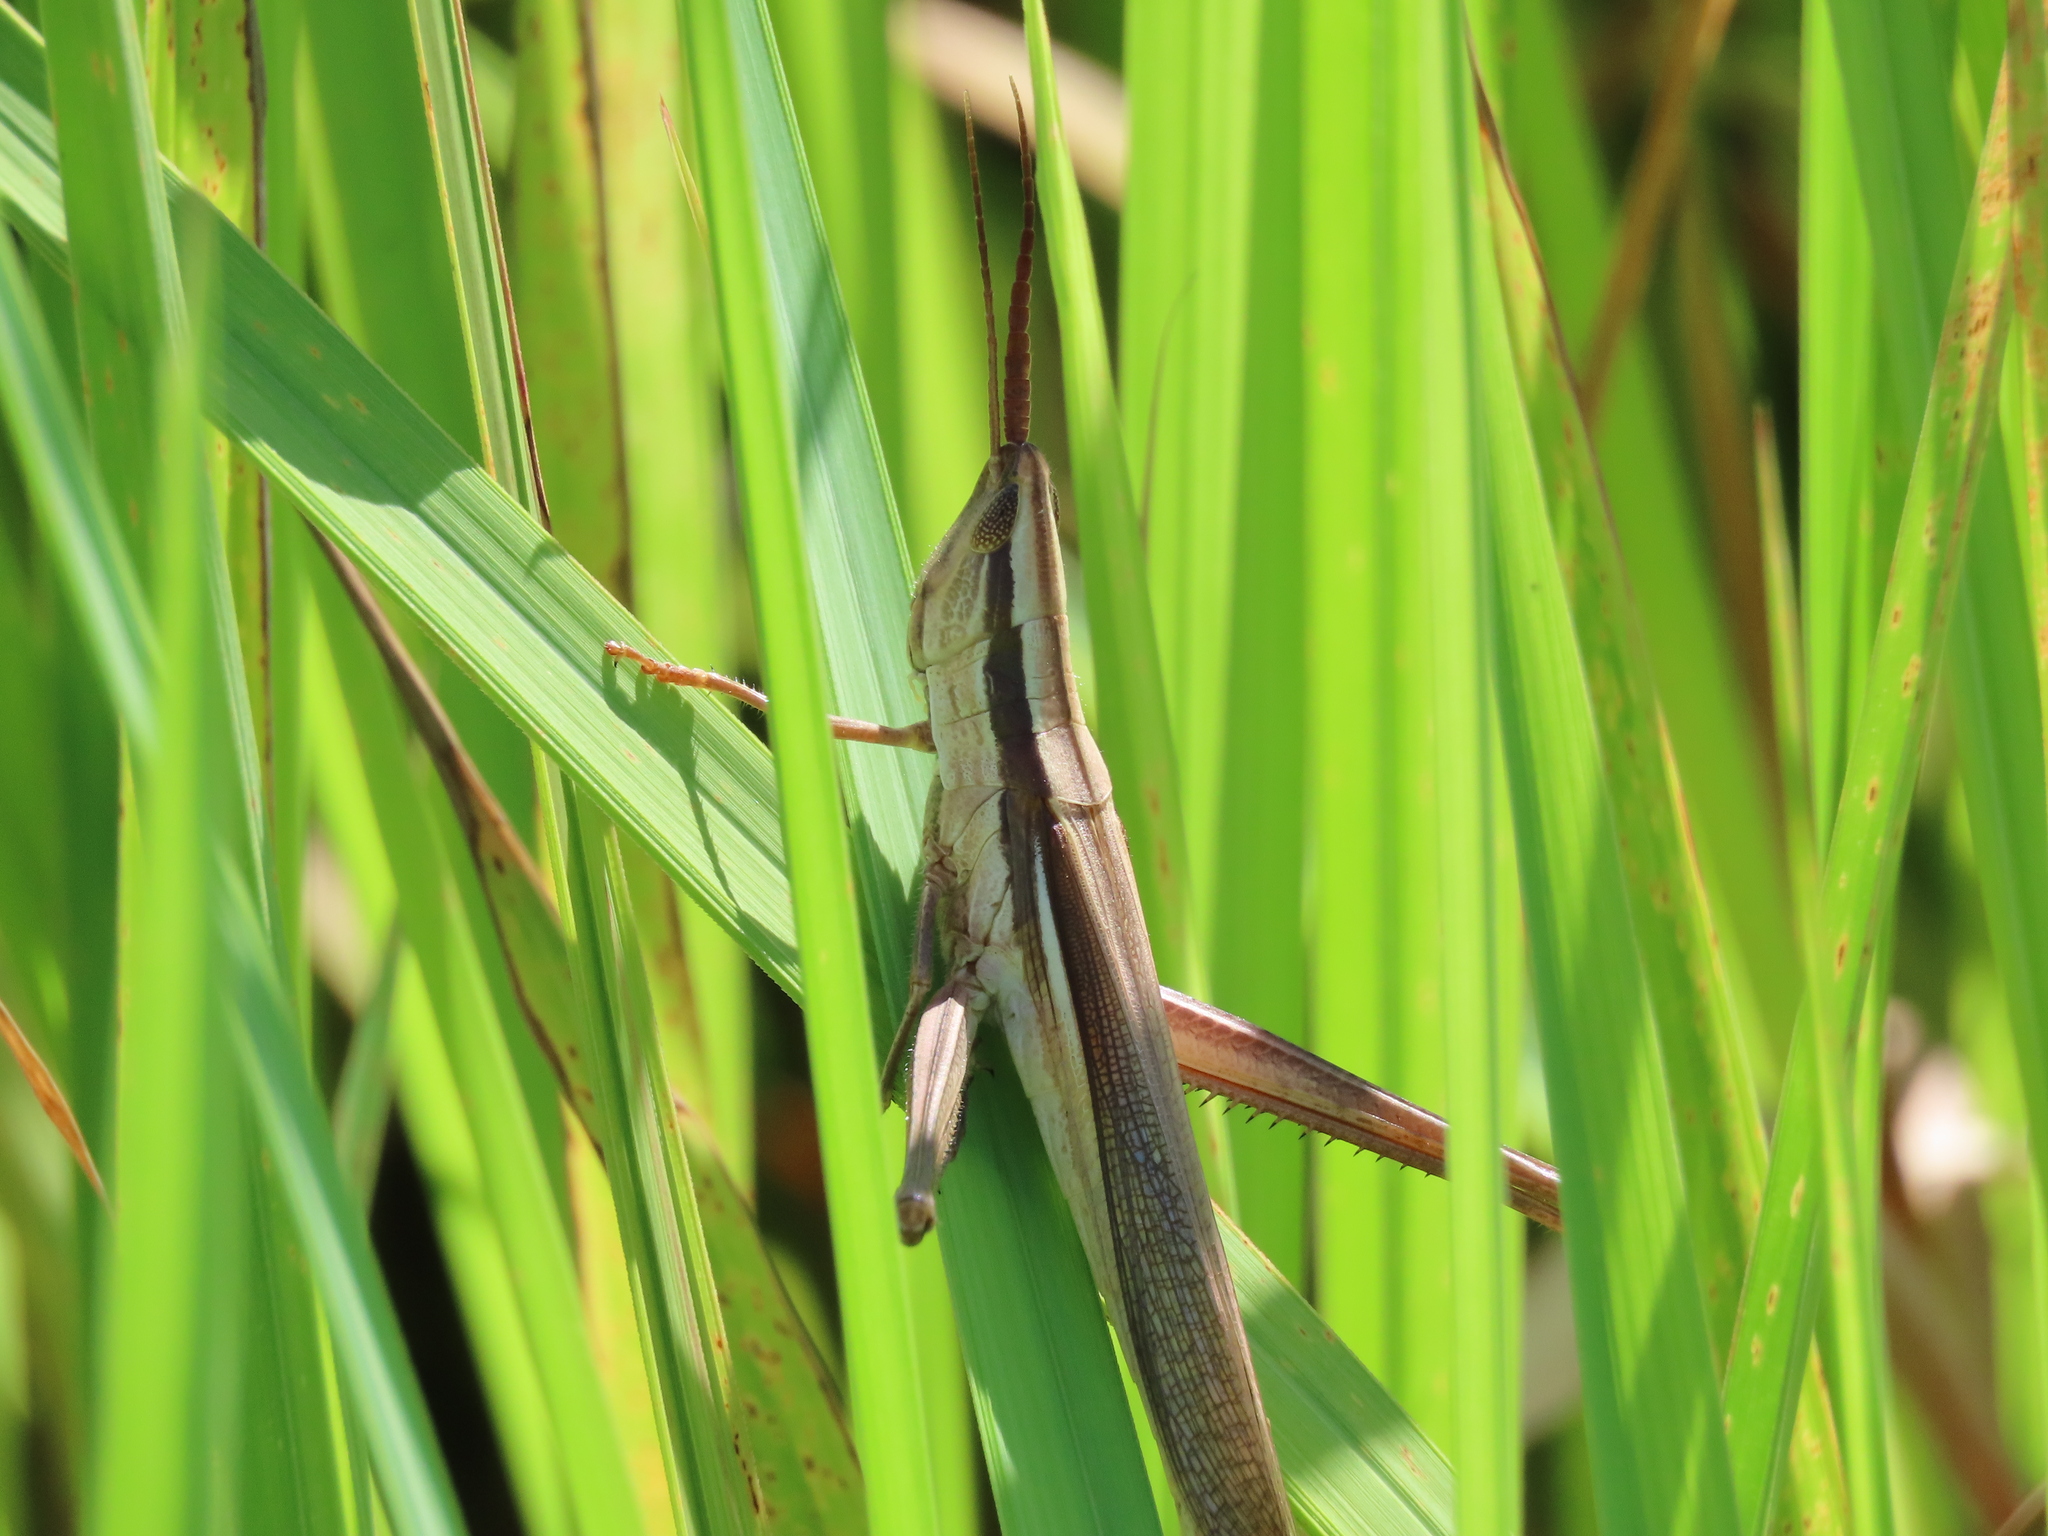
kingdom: Animalia
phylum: Arthropoda
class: Insecta
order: Orthoptera
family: Acrididae
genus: Mermiria
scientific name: Mermiria intertexta
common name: Eastern mermiria grasshopper
